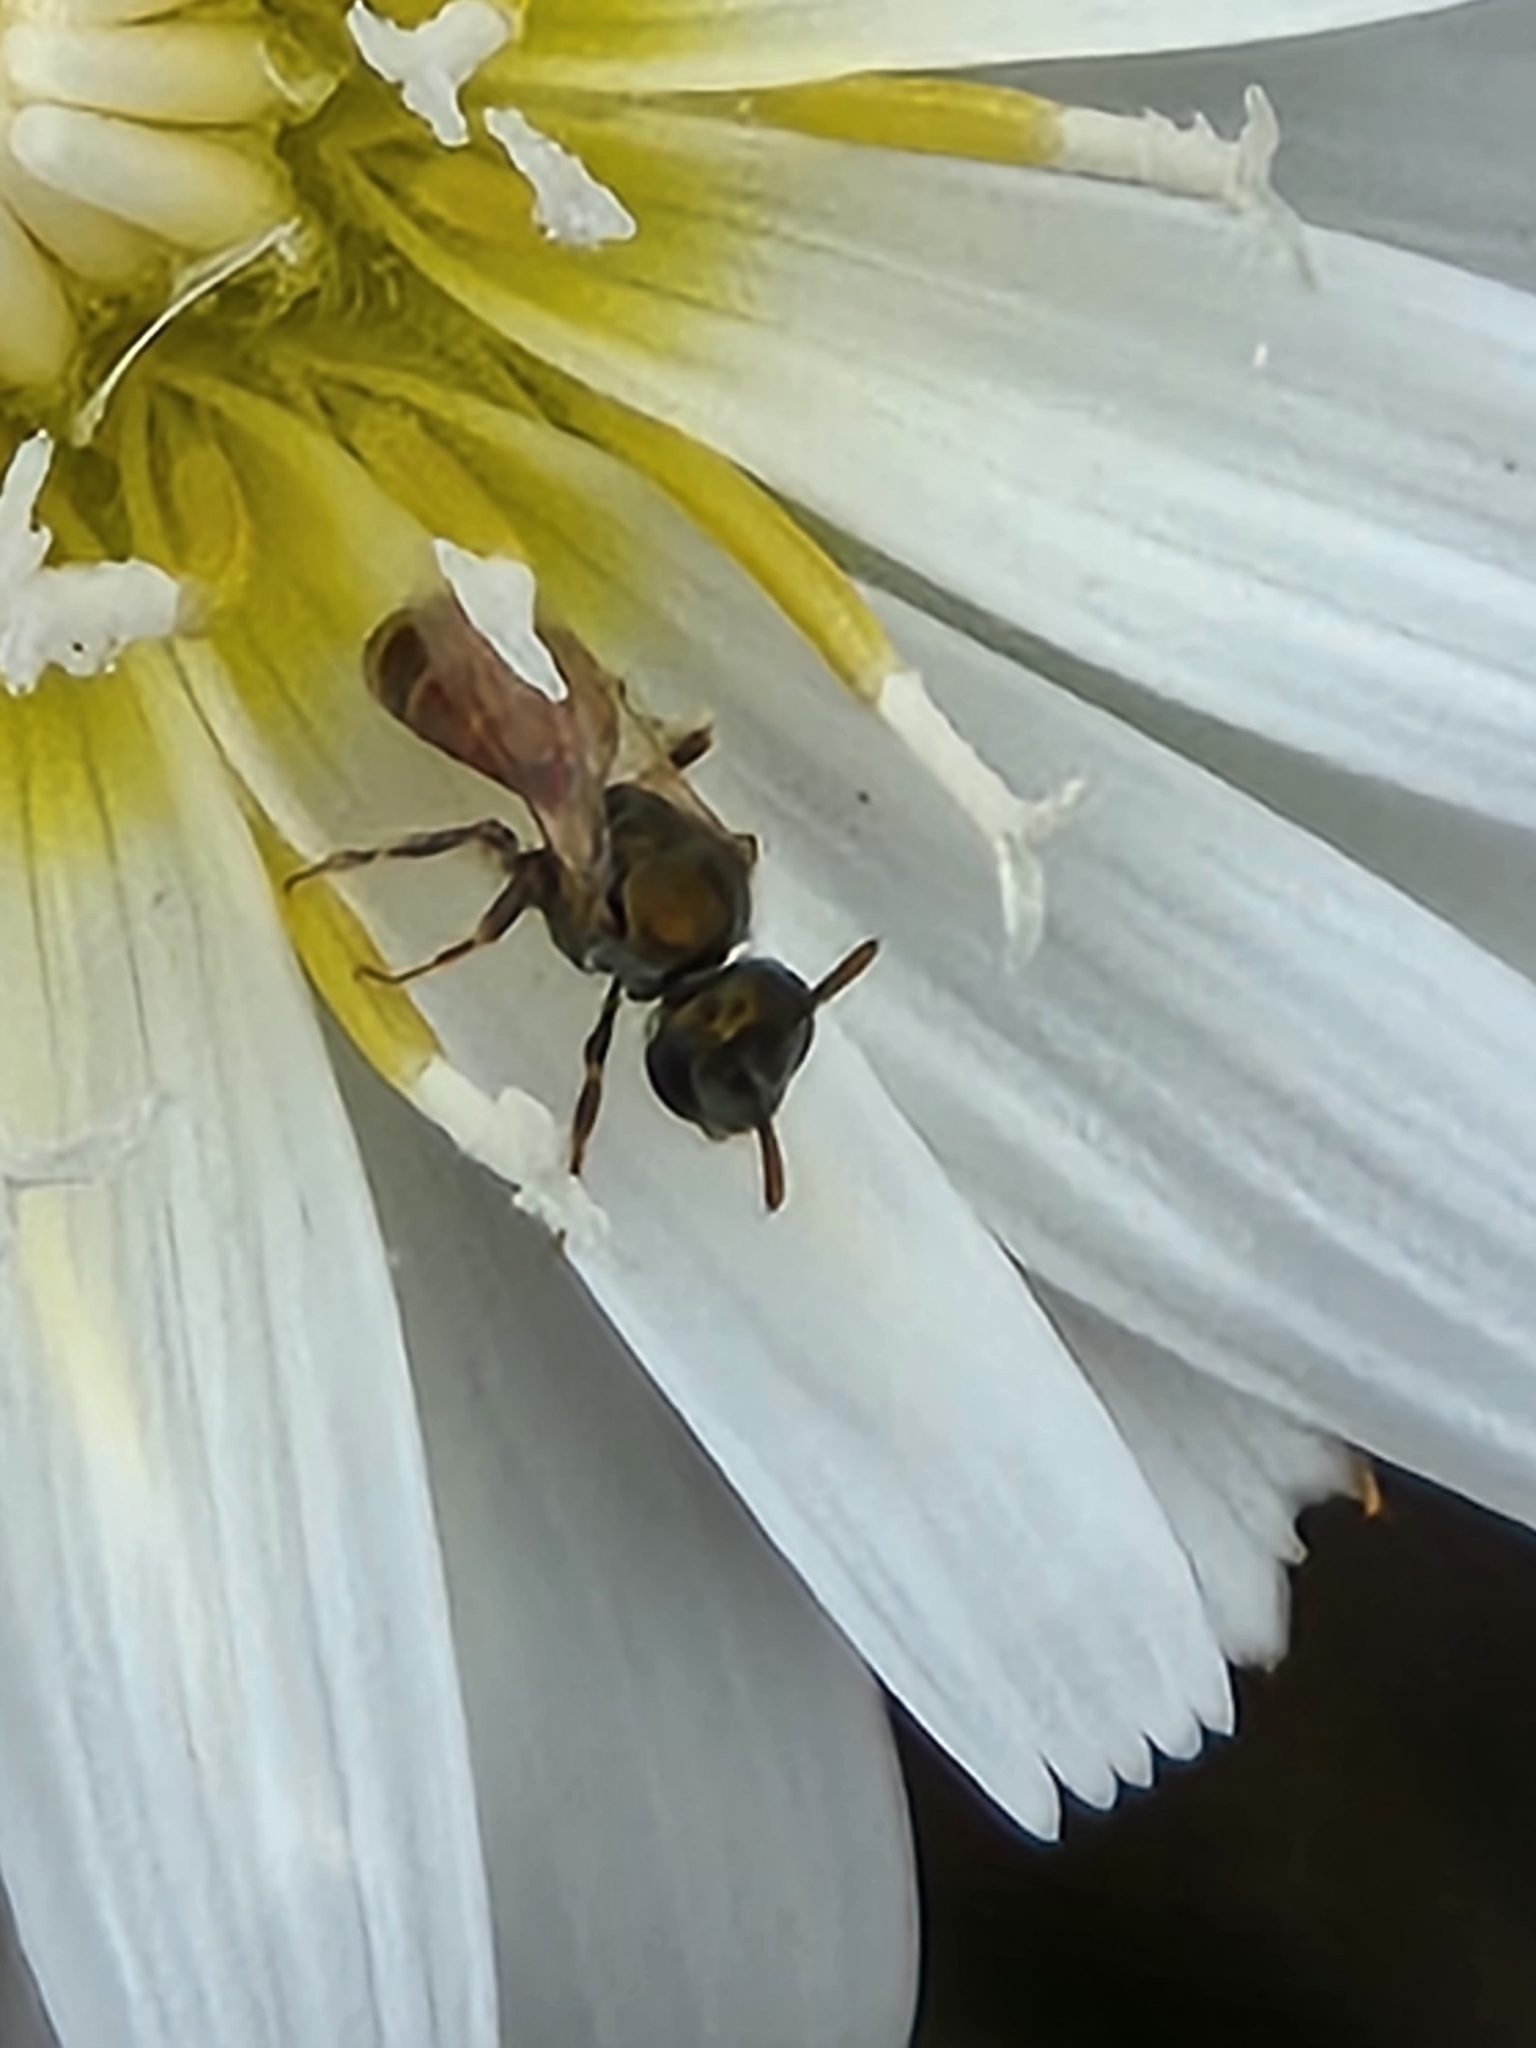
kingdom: Animalia
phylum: Arthropoda
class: Insecta
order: Hymenoptera
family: Halictidae
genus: Dialictus
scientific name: Dialictus
